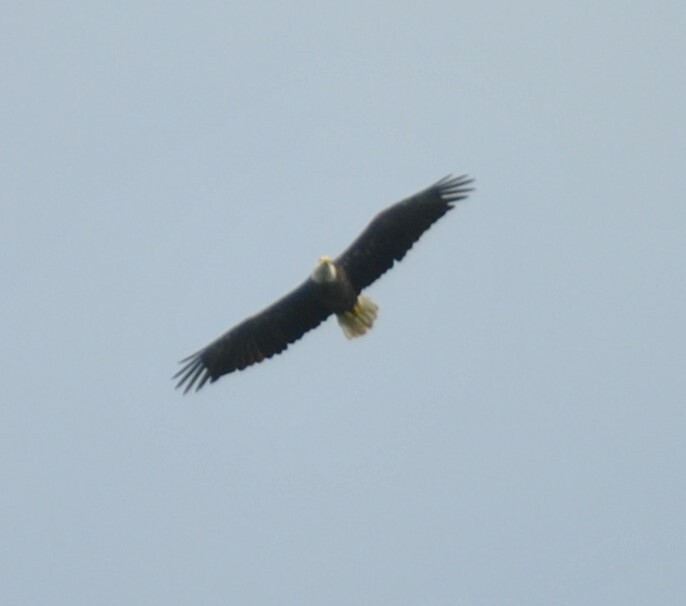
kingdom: Animalia
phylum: Chordata
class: Aves
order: Accipitriformes
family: Accipitridae
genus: Haliaeetus
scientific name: Haliaeetus leucocephalus
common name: Bald eagle
